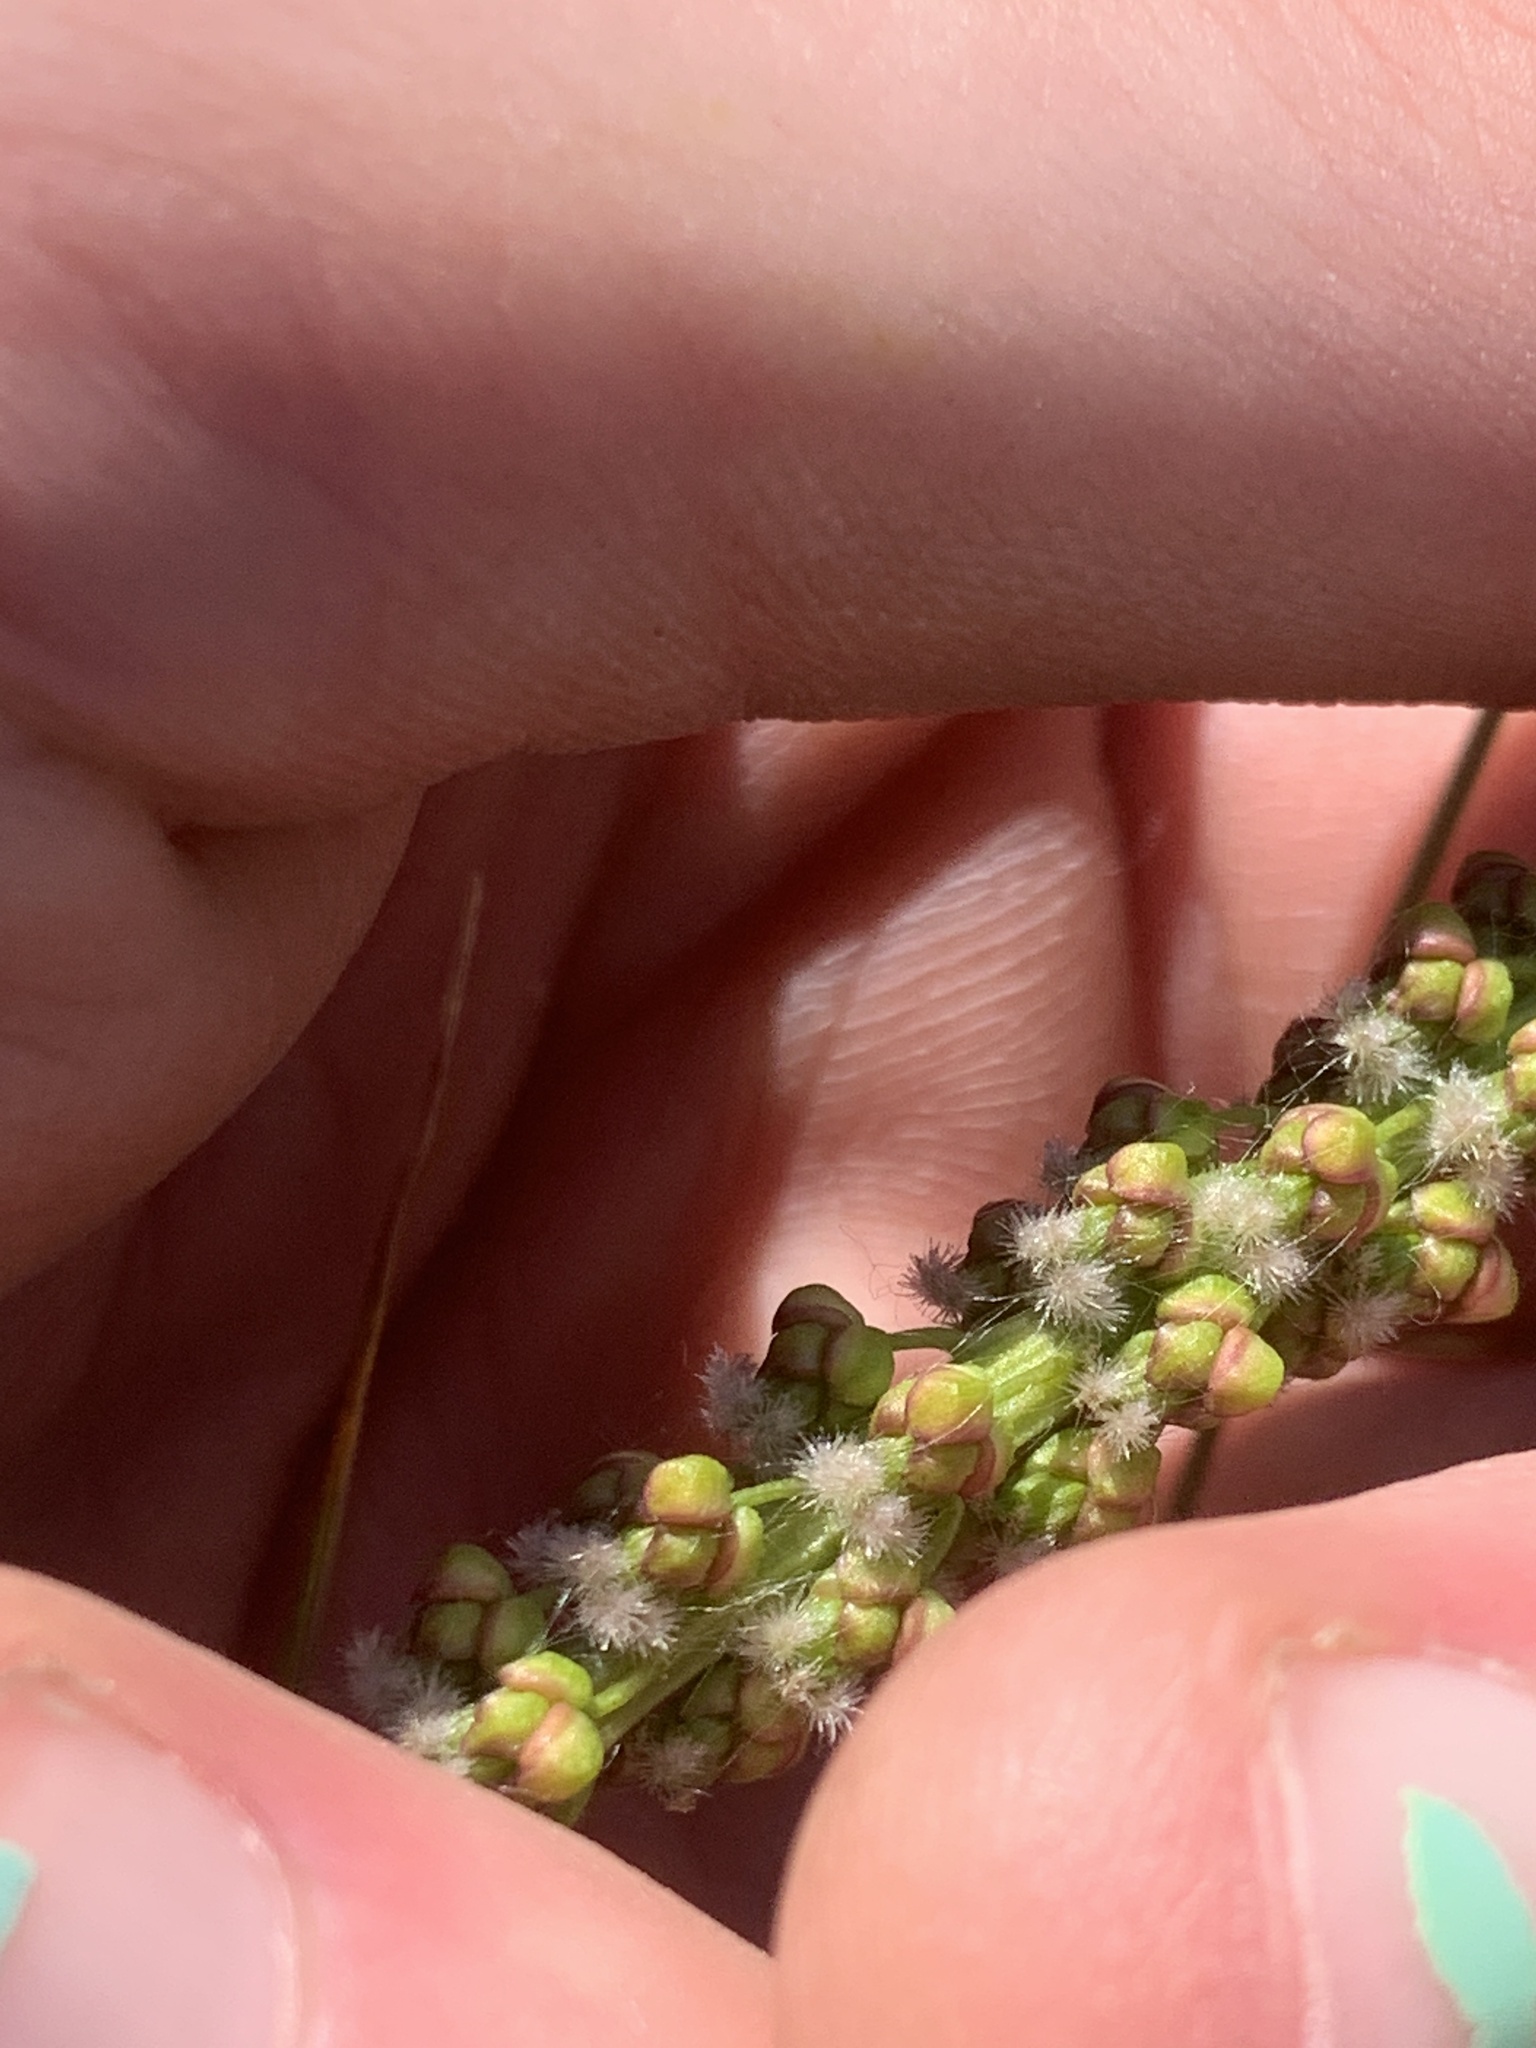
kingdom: Plantae
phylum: Tracheophyta
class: Liliopsida
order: Alismatales
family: Juncaginaceae
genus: Triglochin
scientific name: Triglochin maritima
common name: Sea arrowgrass
